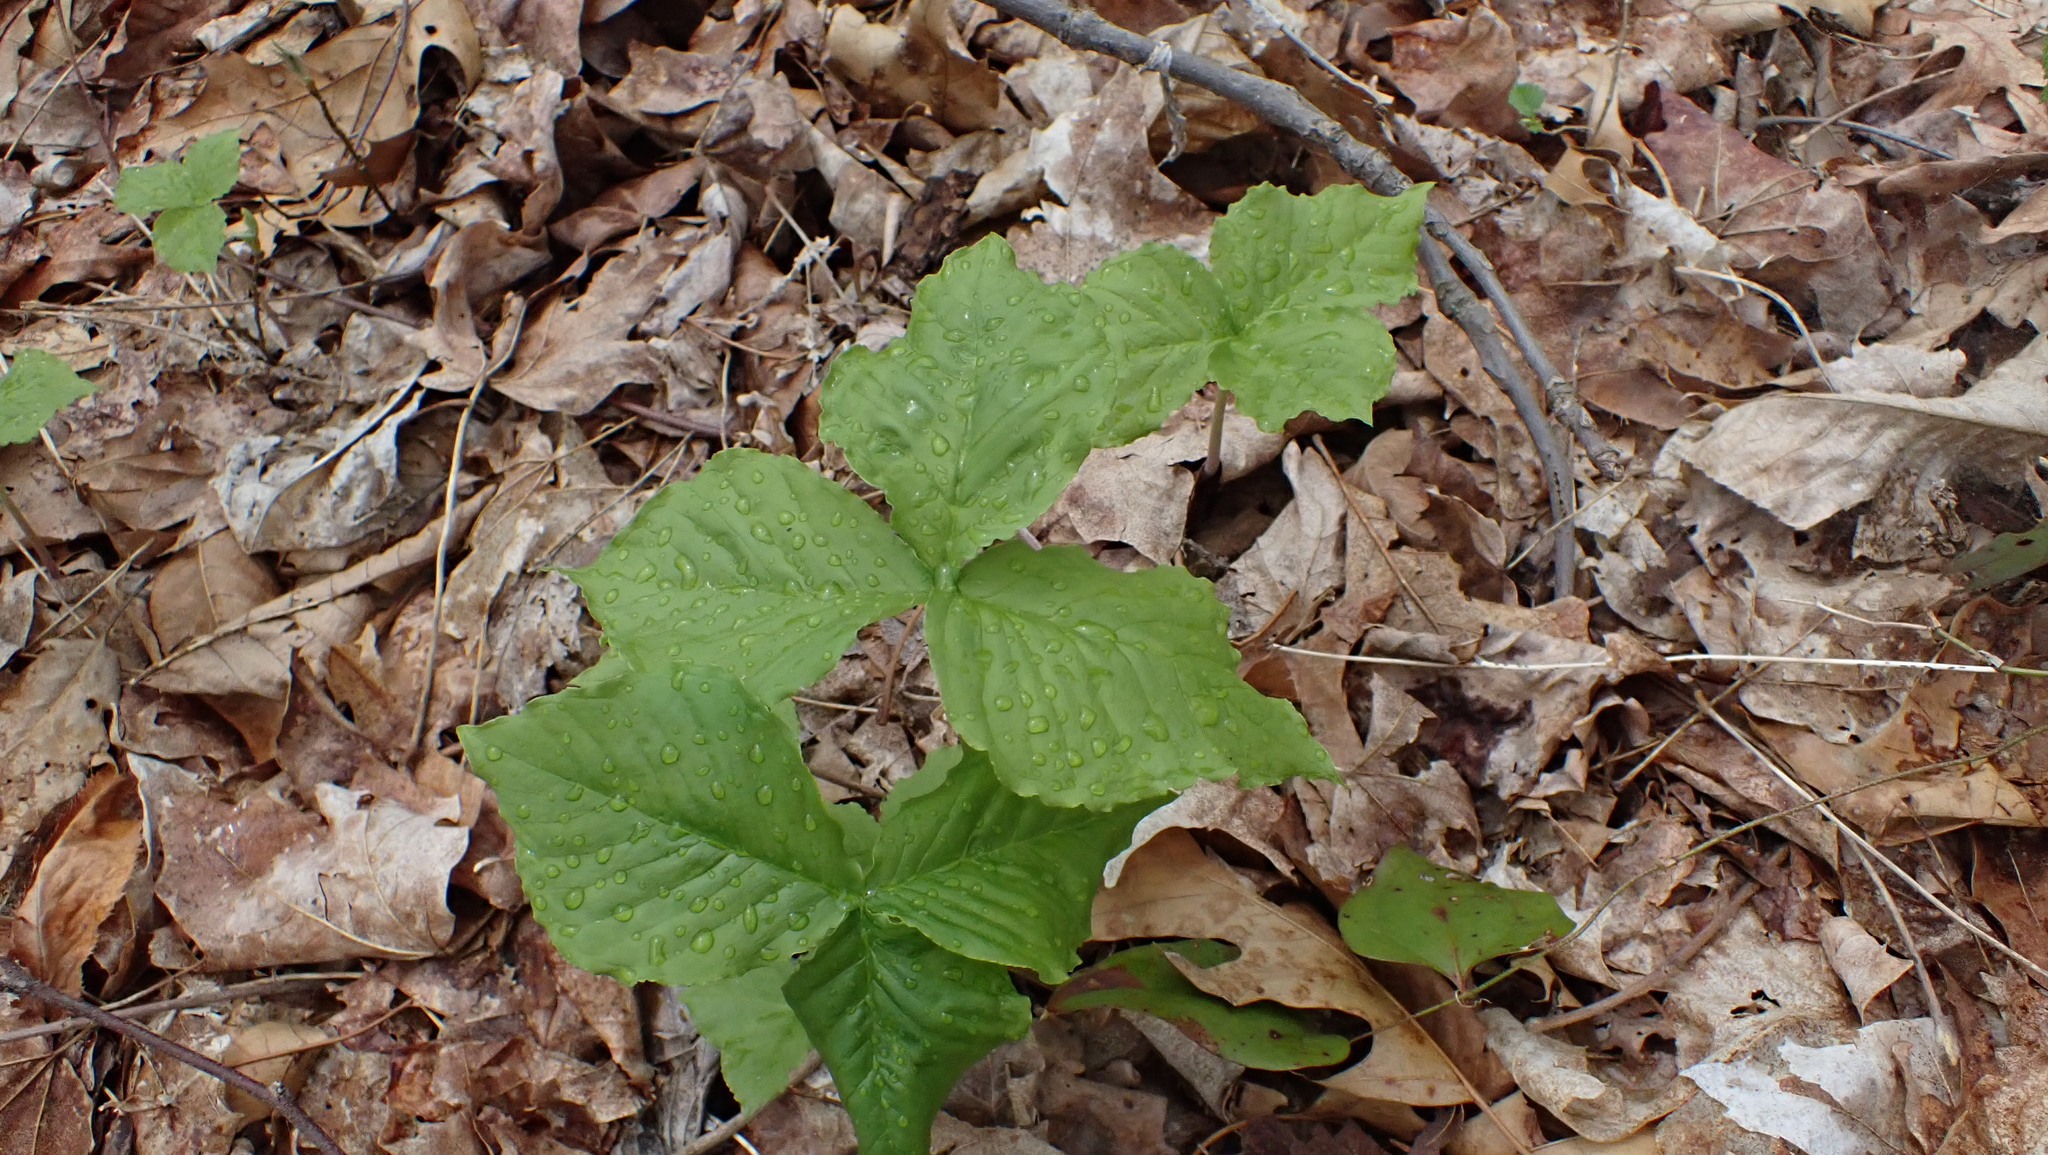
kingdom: Plantae
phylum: Tracheophyta
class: Liliopsida
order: Alismatales
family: Araceae
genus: Arisaema
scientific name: Arisaema triphyllum
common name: Jack-in-the-pulpit
